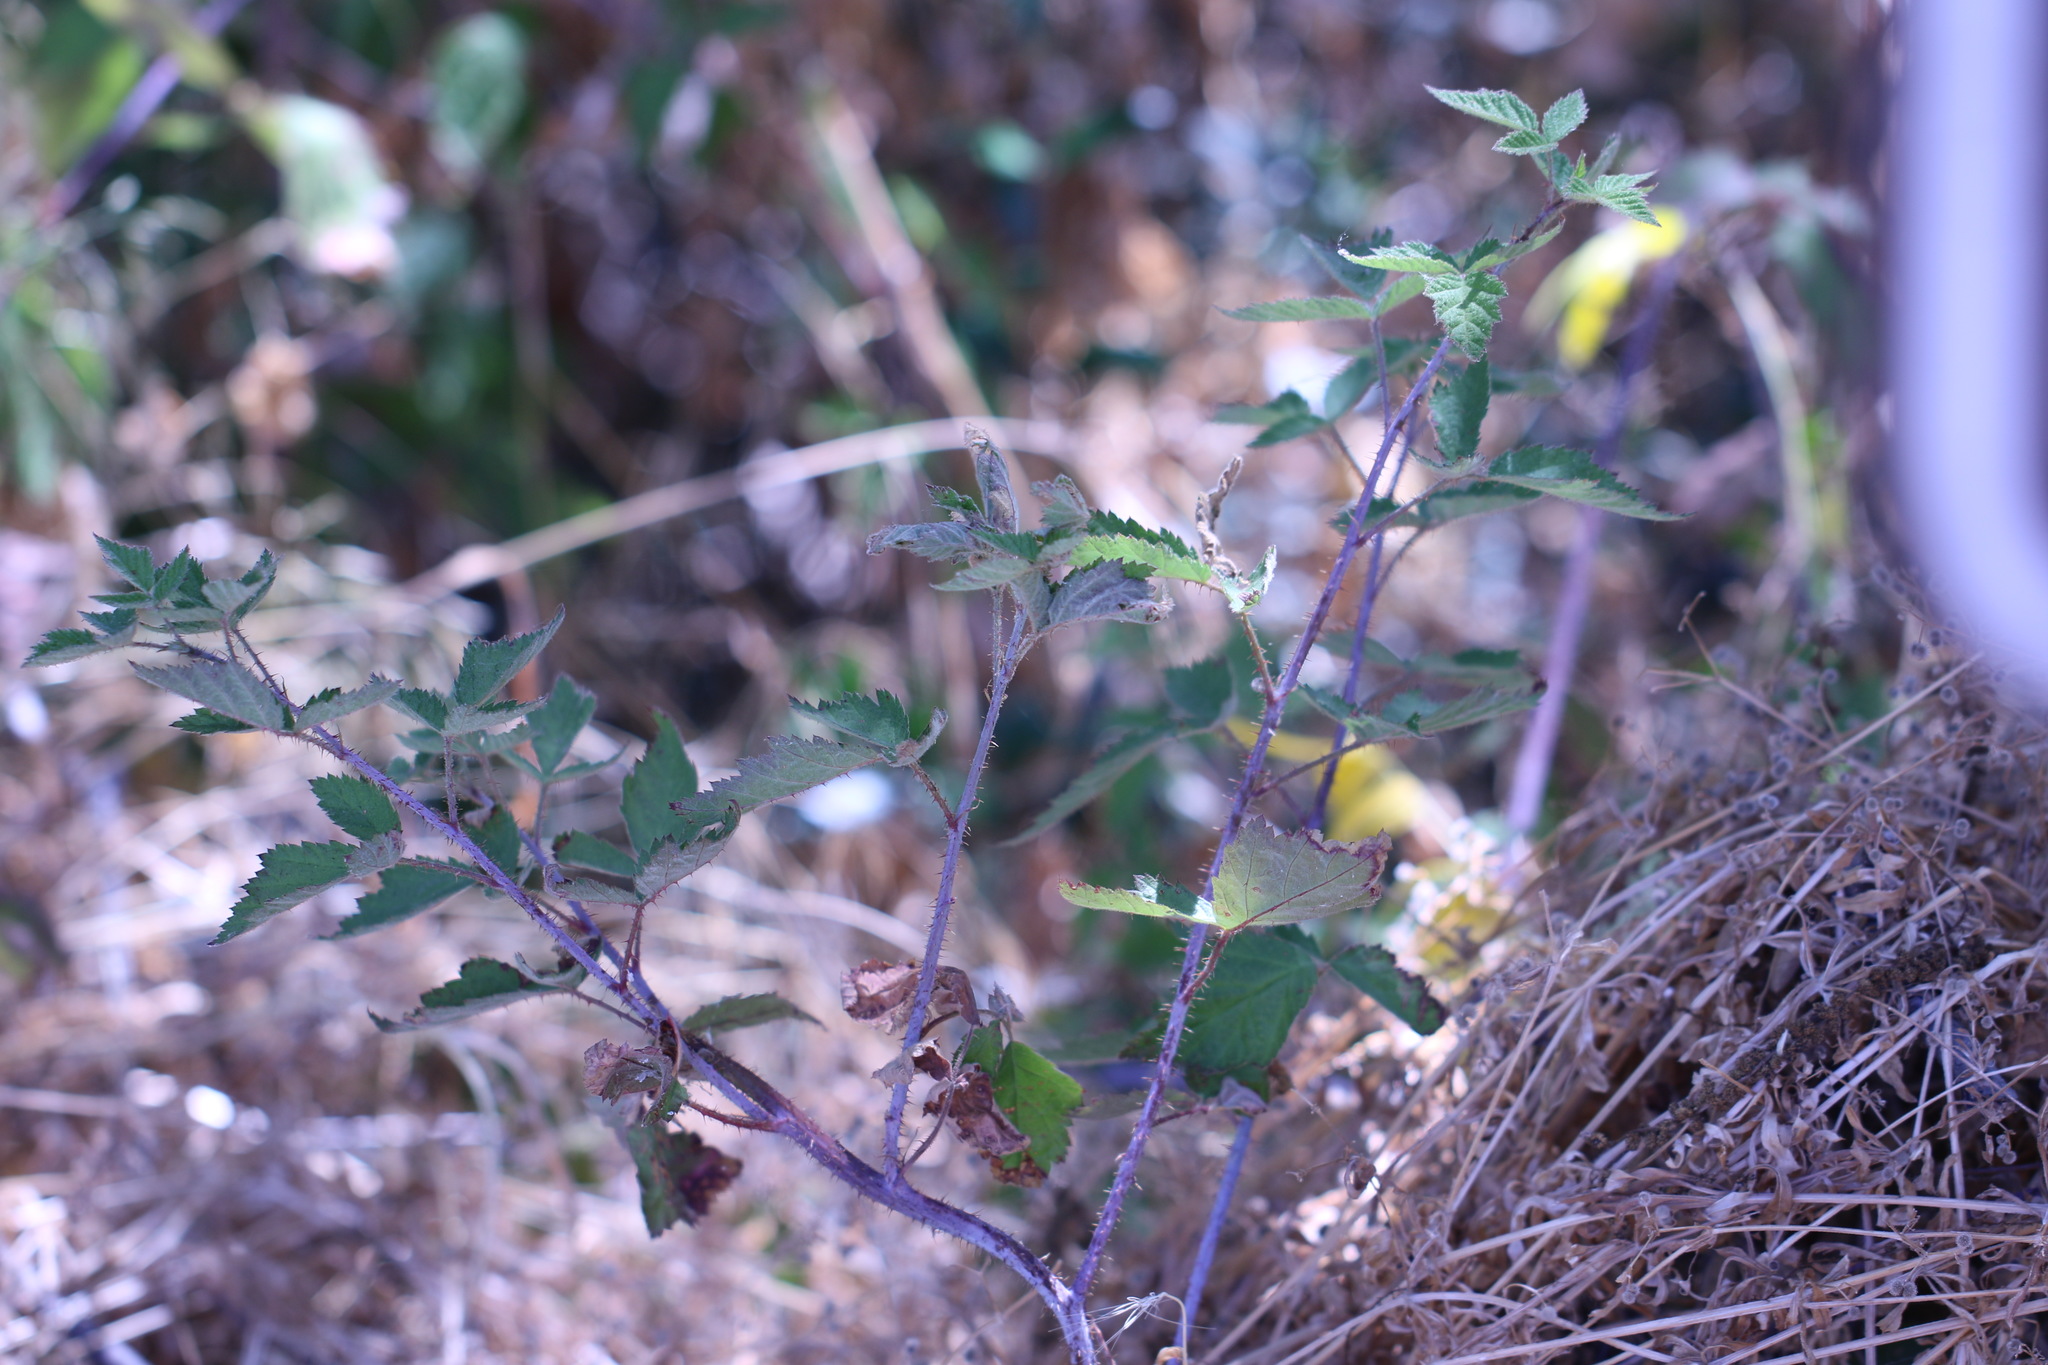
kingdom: Plantae
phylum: Tracheophyta
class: Magnoliopsida
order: Rosales
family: Rosaceae
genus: Rubus
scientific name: Rubus ursinus
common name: Pacific blackberry
